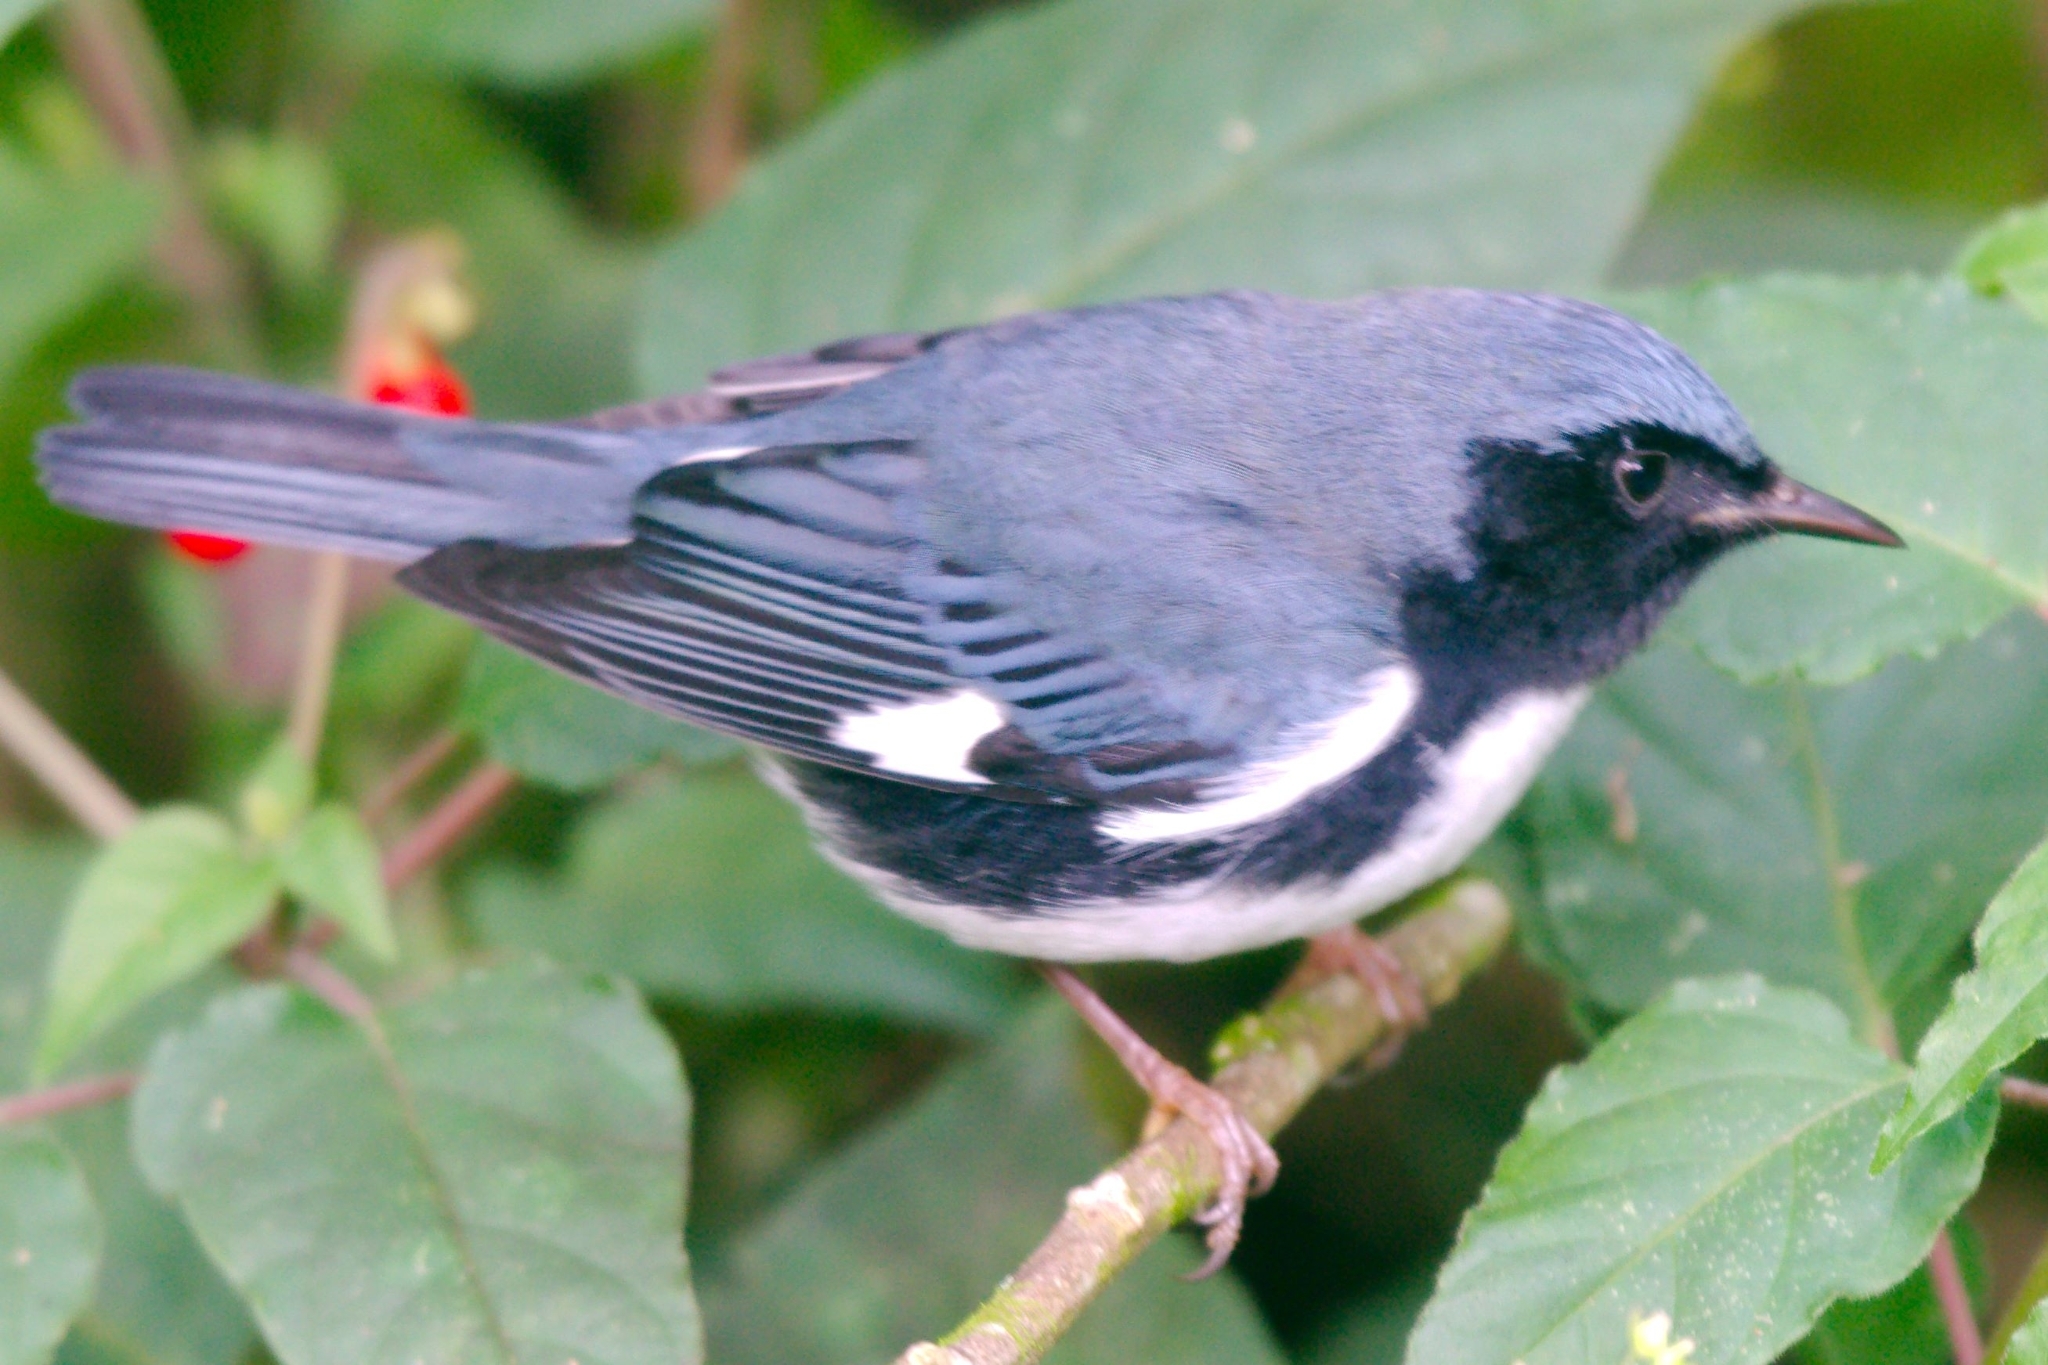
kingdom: Animalia
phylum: Chordata
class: Aves
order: Passeriformes
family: Parulidae
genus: Setophaga
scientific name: Setophaga caerulescens
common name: Black-throated blue warbler
